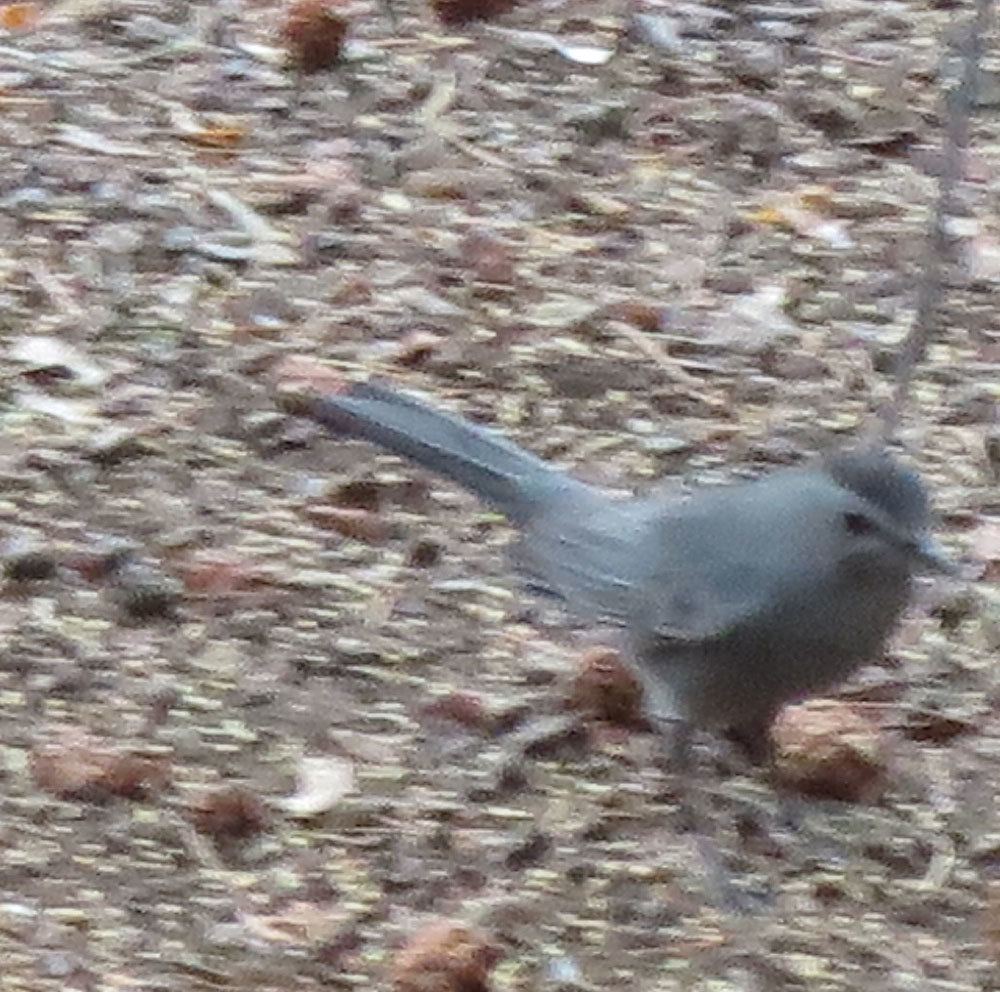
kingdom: Animalia
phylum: Chordata
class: Aves
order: Passeriformes
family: Mimidae
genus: Dumetella
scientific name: Dumetella carolinensis
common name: Gray catbird
